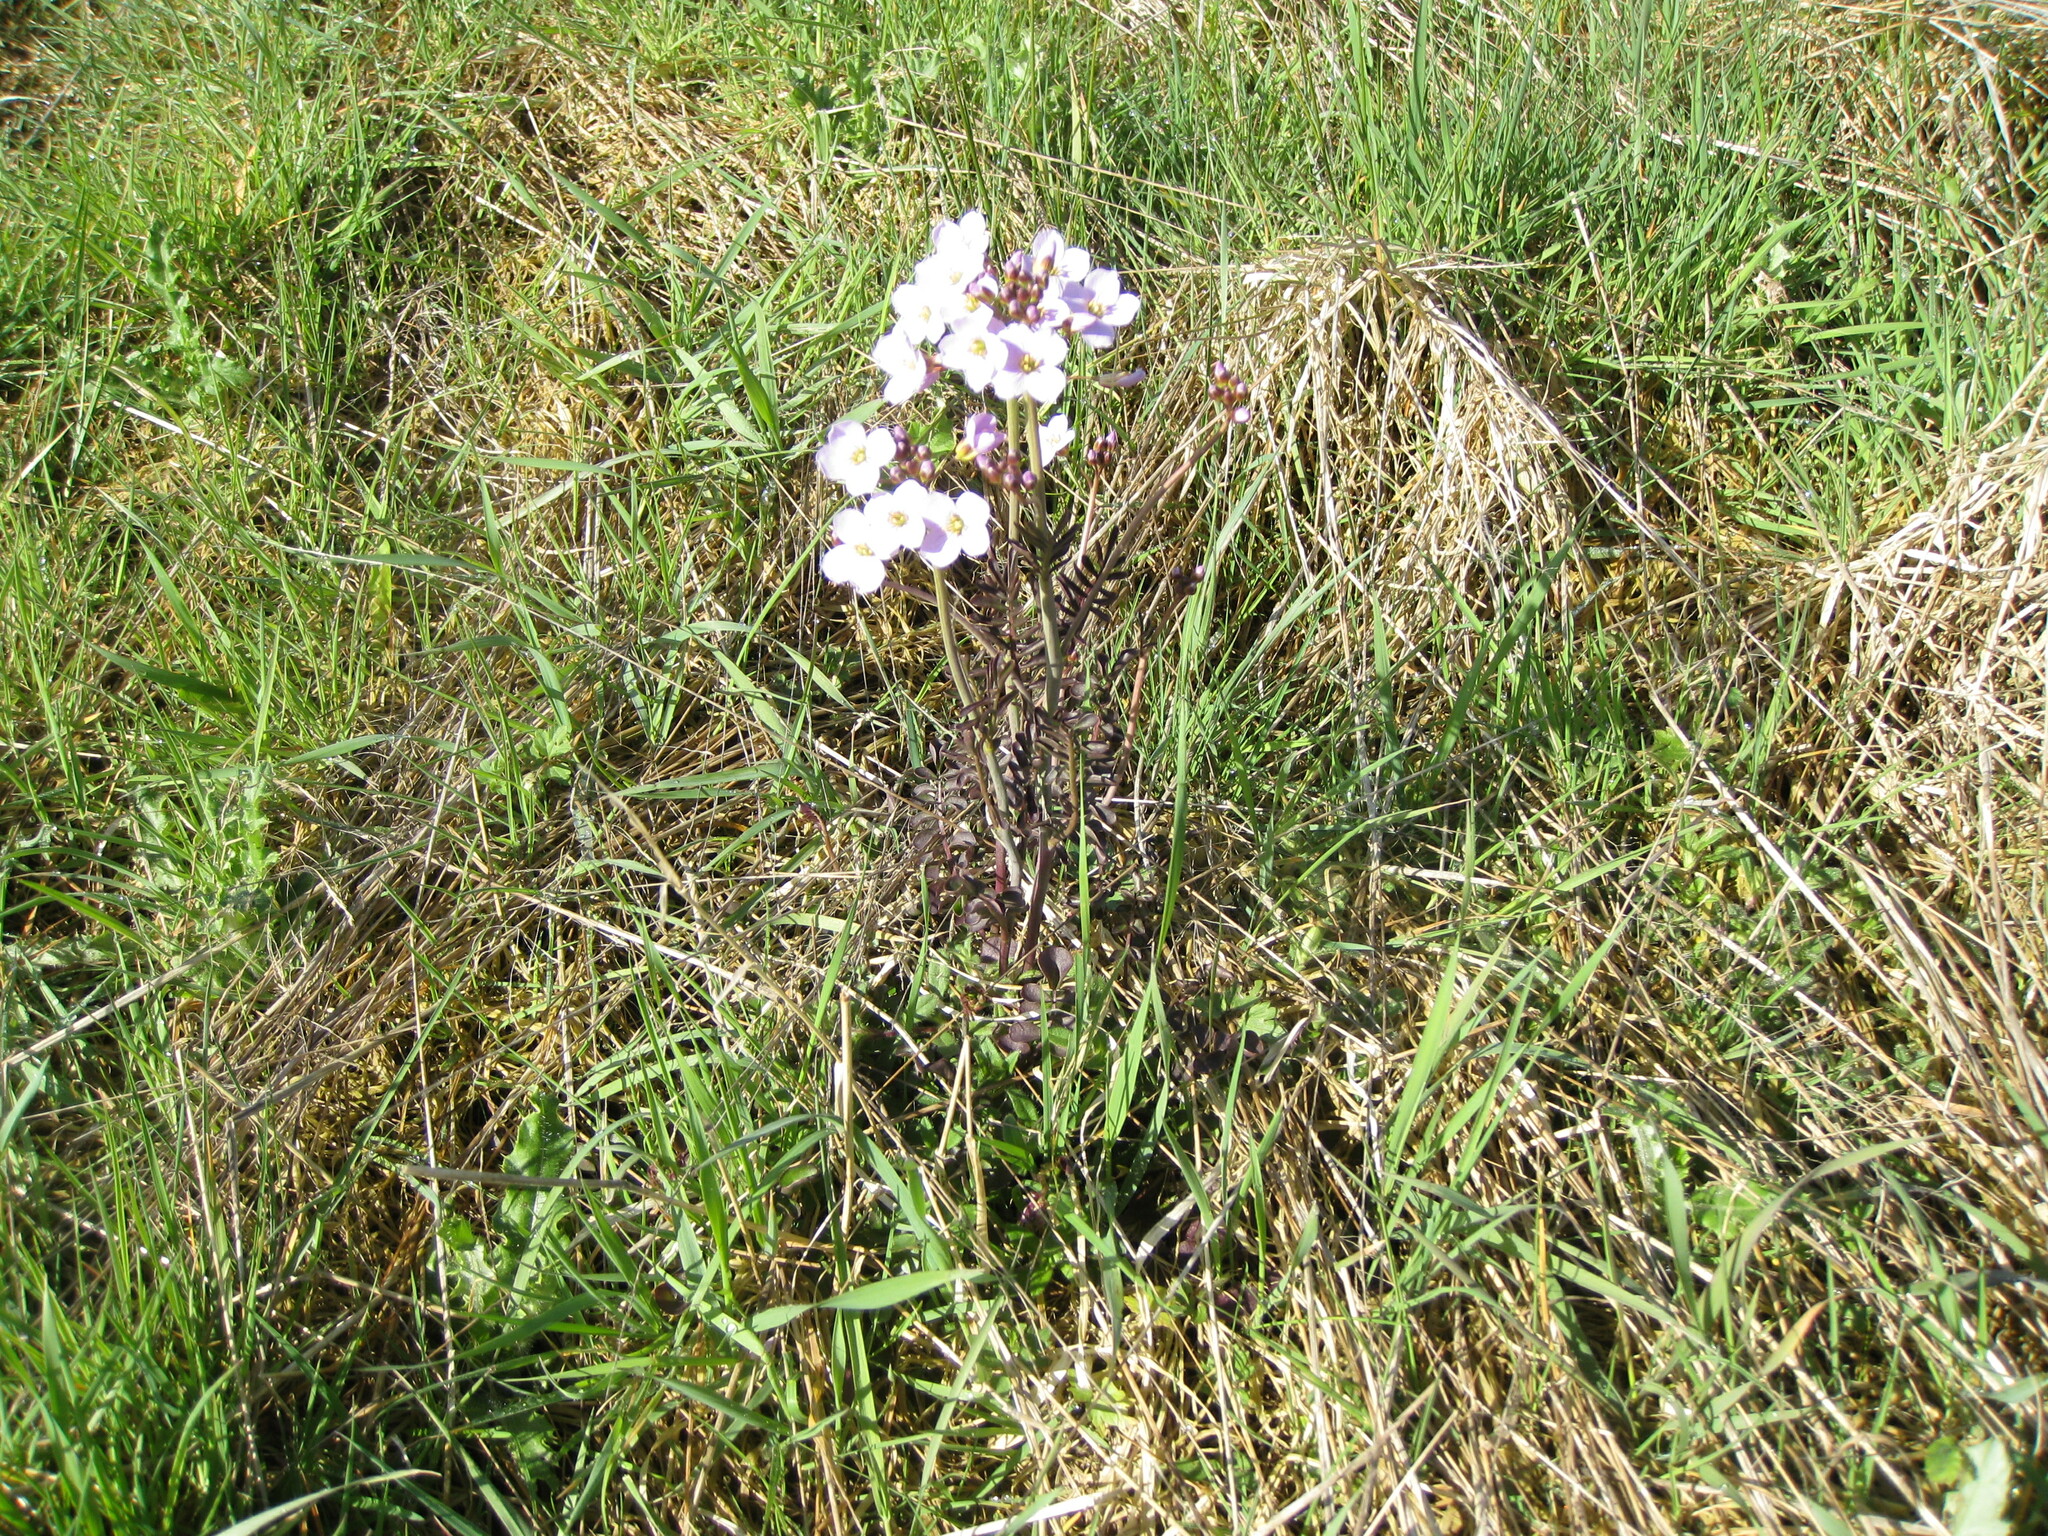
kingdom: Plantae
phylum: Tracheophyta
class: Magnoliopsida
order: Brassicales
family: Brassicaceae
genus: Cardamine
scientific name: Cardamine pratensis
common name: Cuckoo flower
